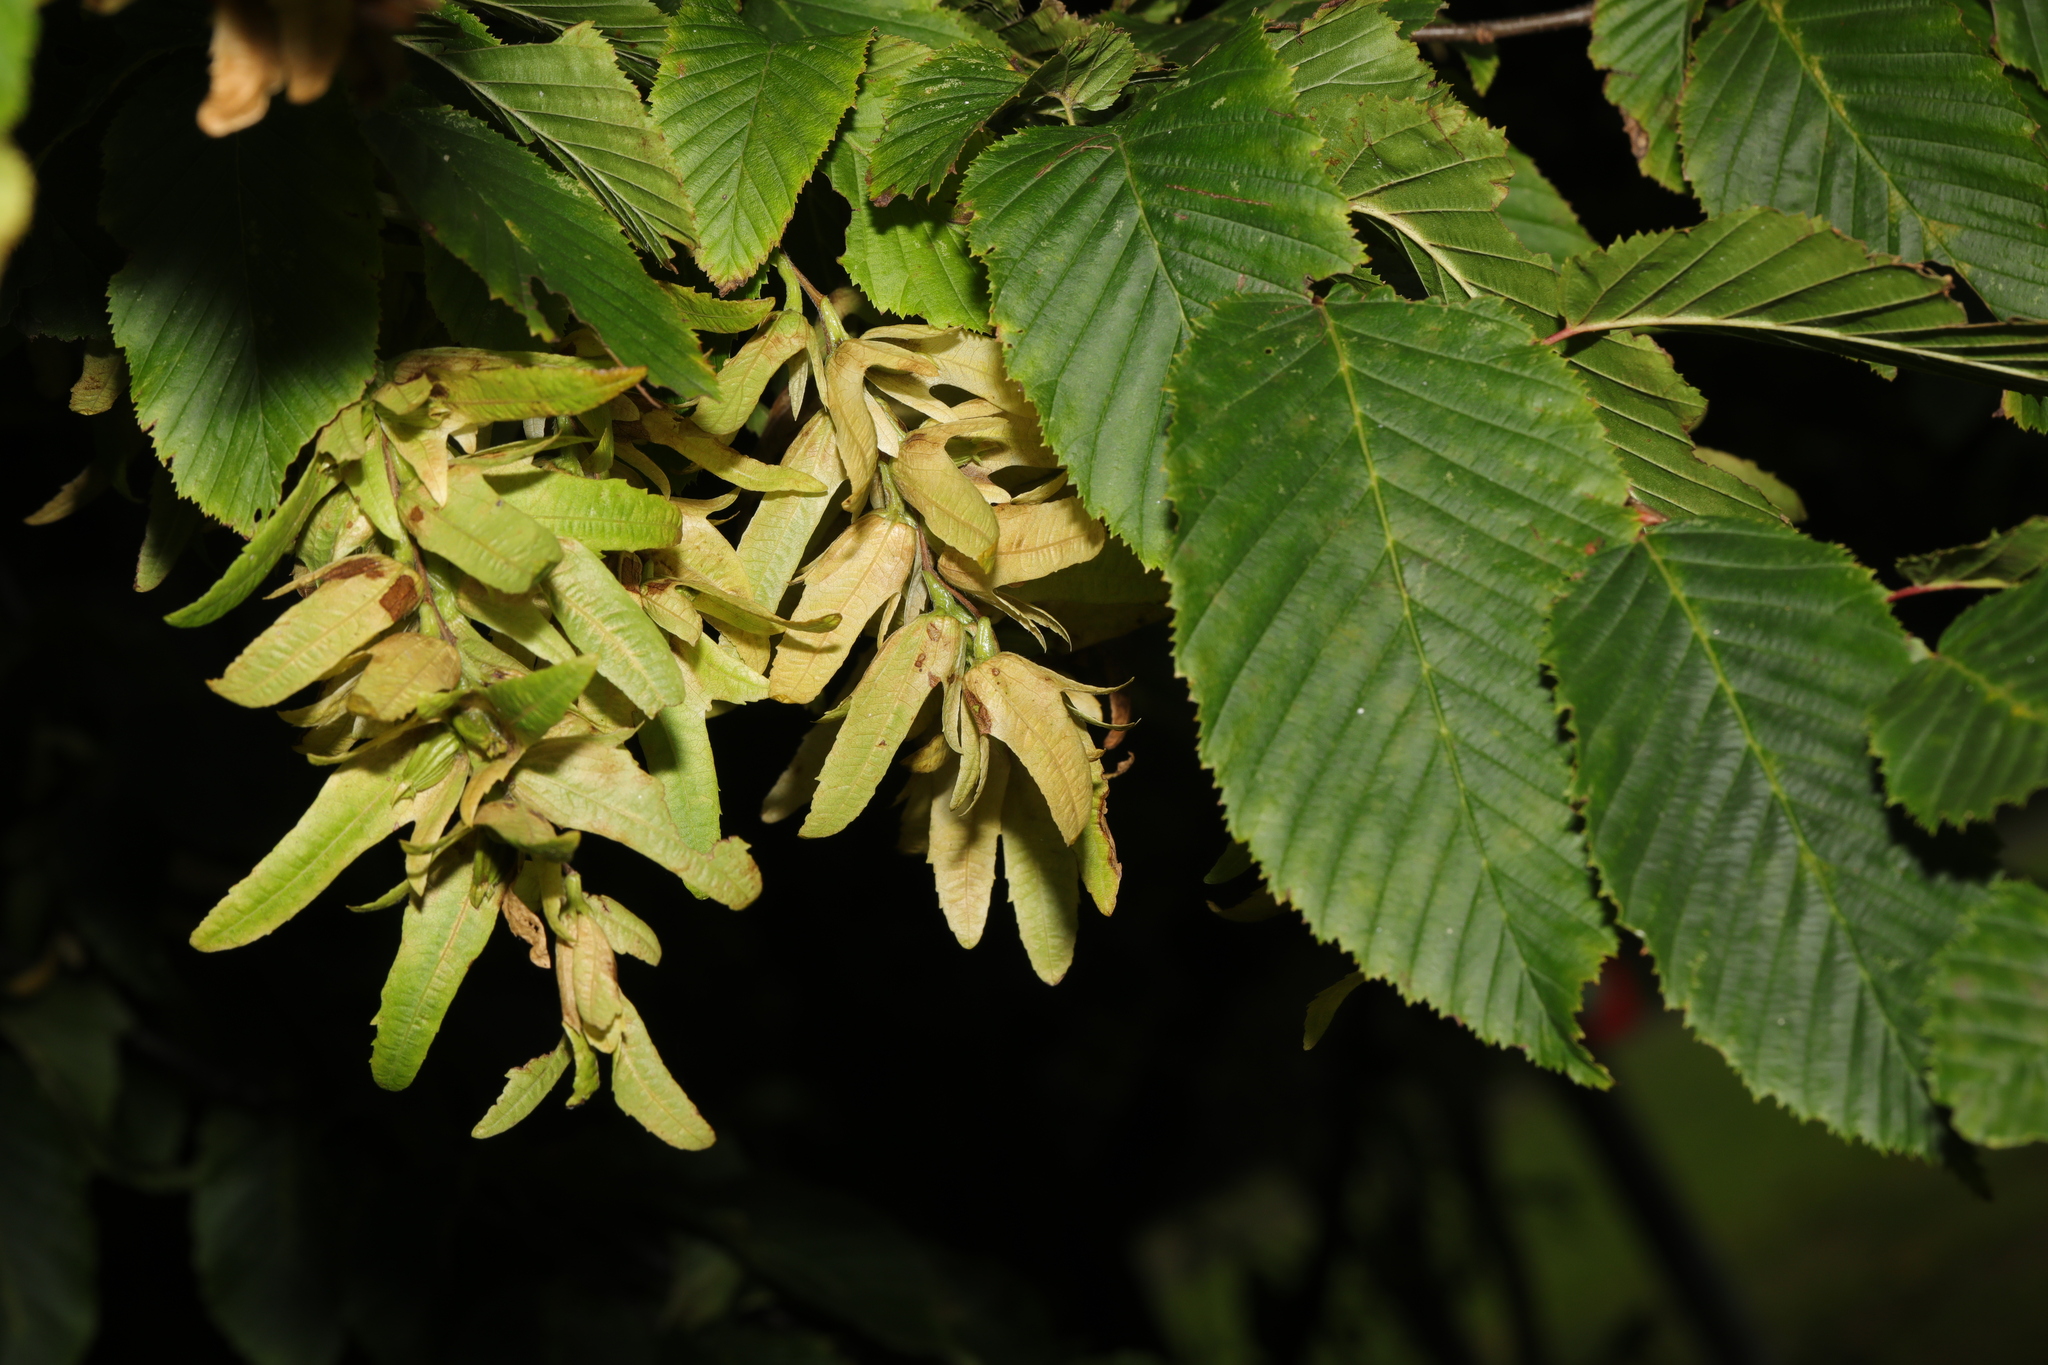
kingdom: Plantae
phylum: Tracheophyta
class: Magnoliopsida
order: Fagales
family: Betulaceae
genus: Carpinus
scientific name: Carpinus betulus
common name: Hornbeam
